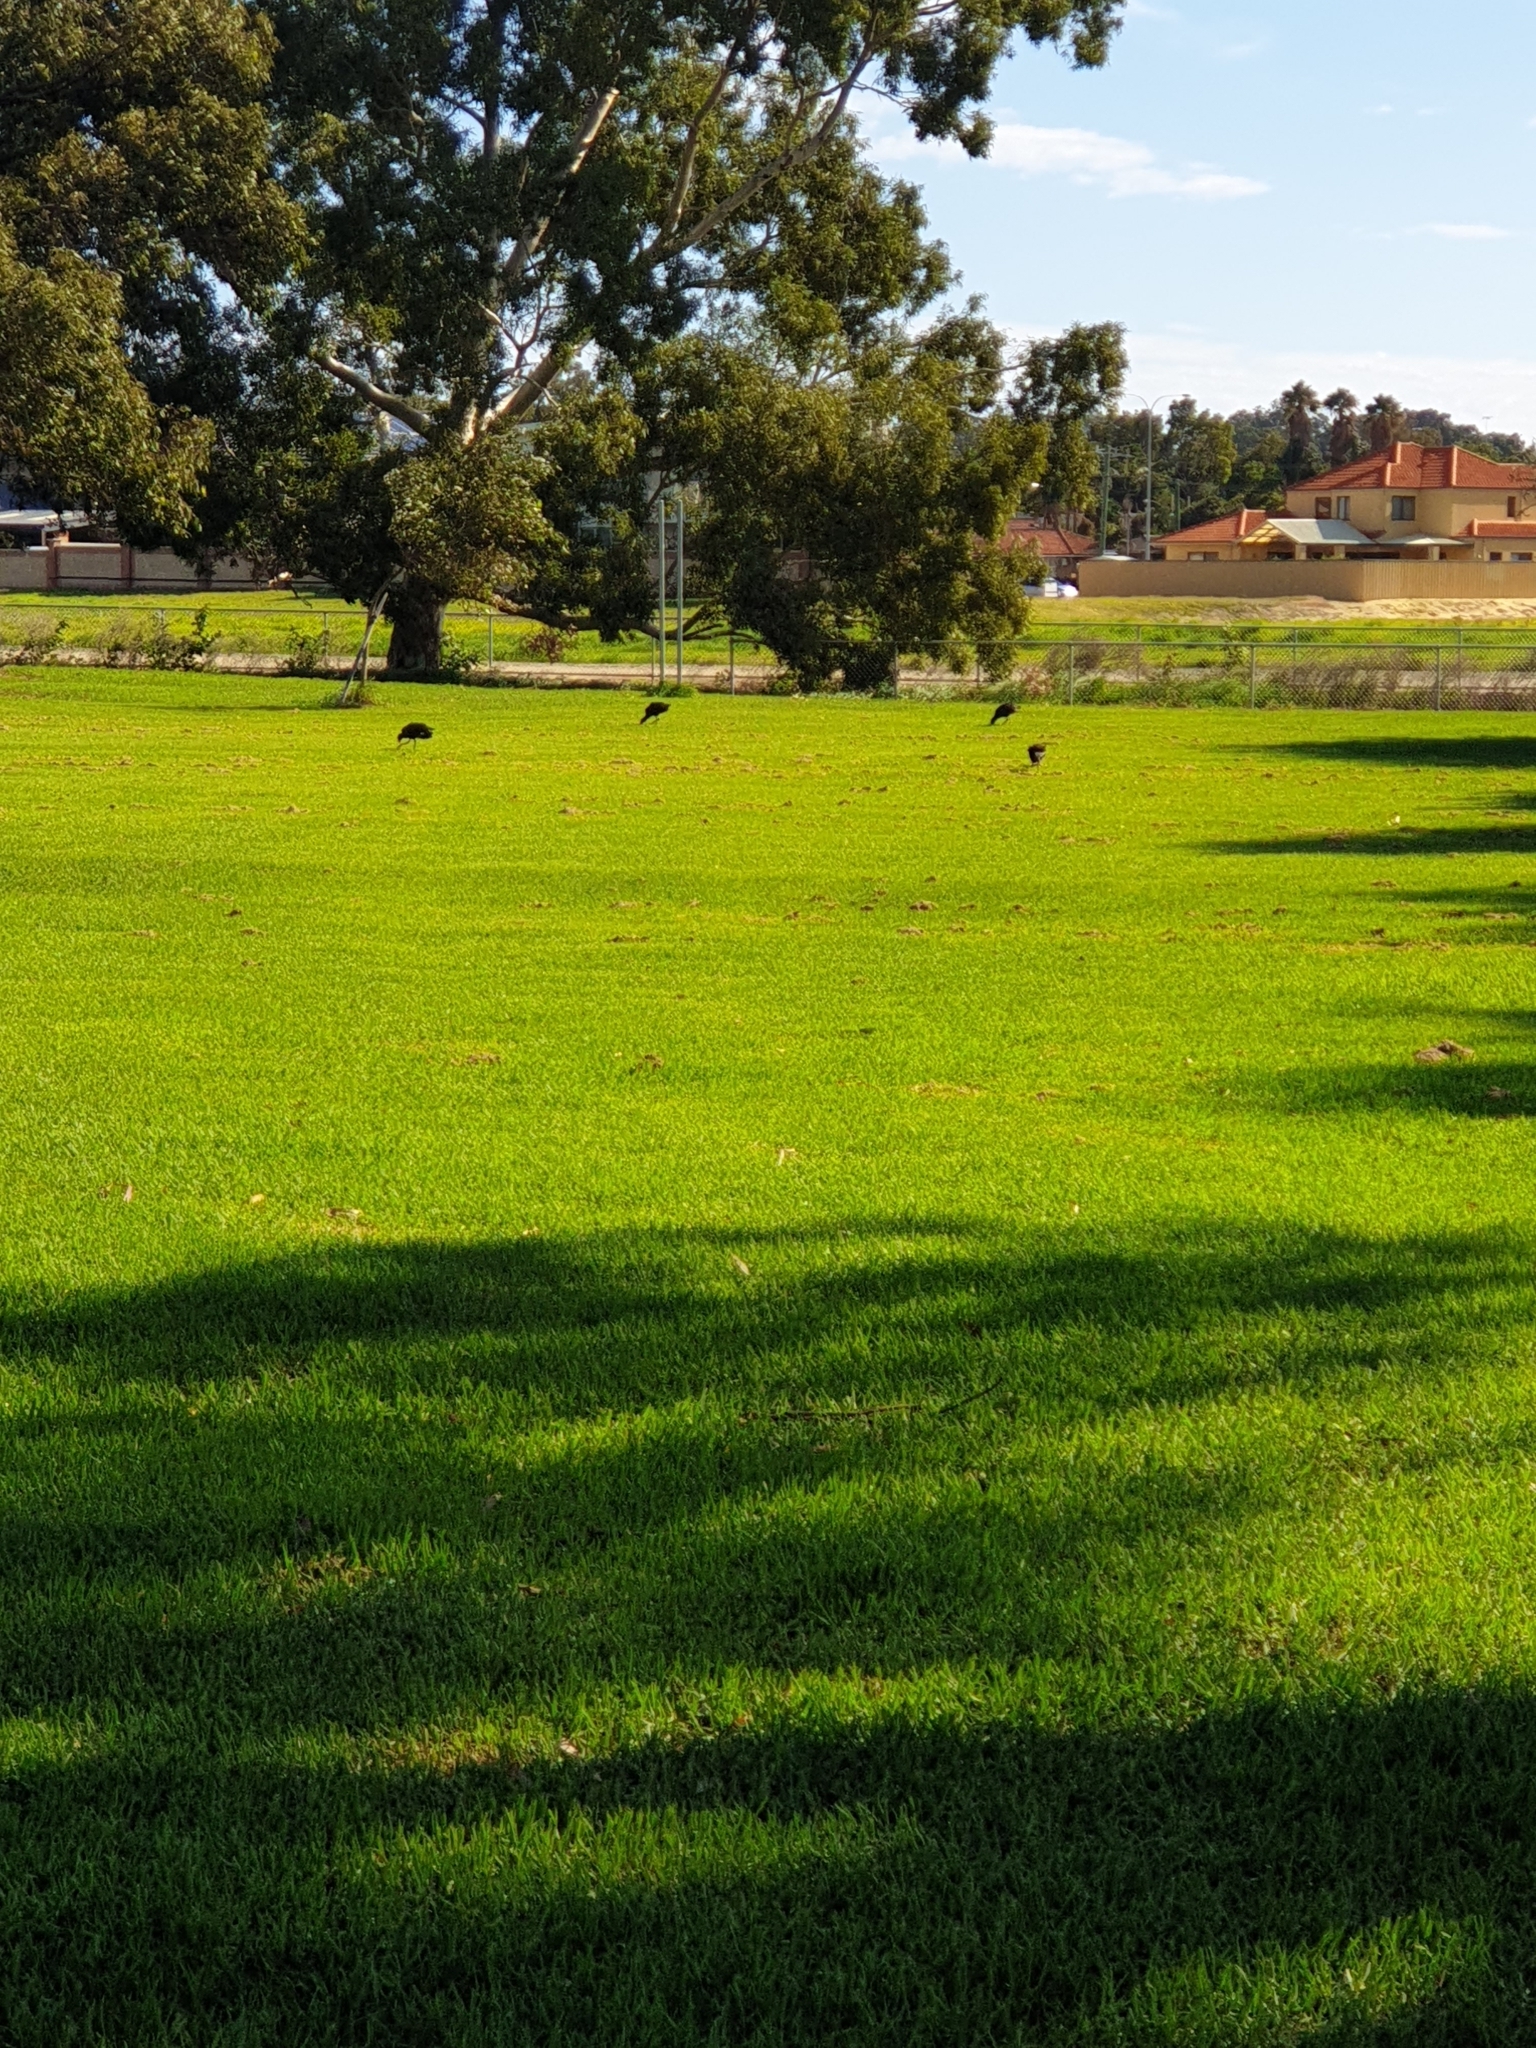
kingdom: Animalia
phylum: Chordata
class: Aves
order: Gruiformes
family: Rallidae
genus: Porphyrio
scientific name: Porphyrio melanotus
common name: Australasian swamphen
